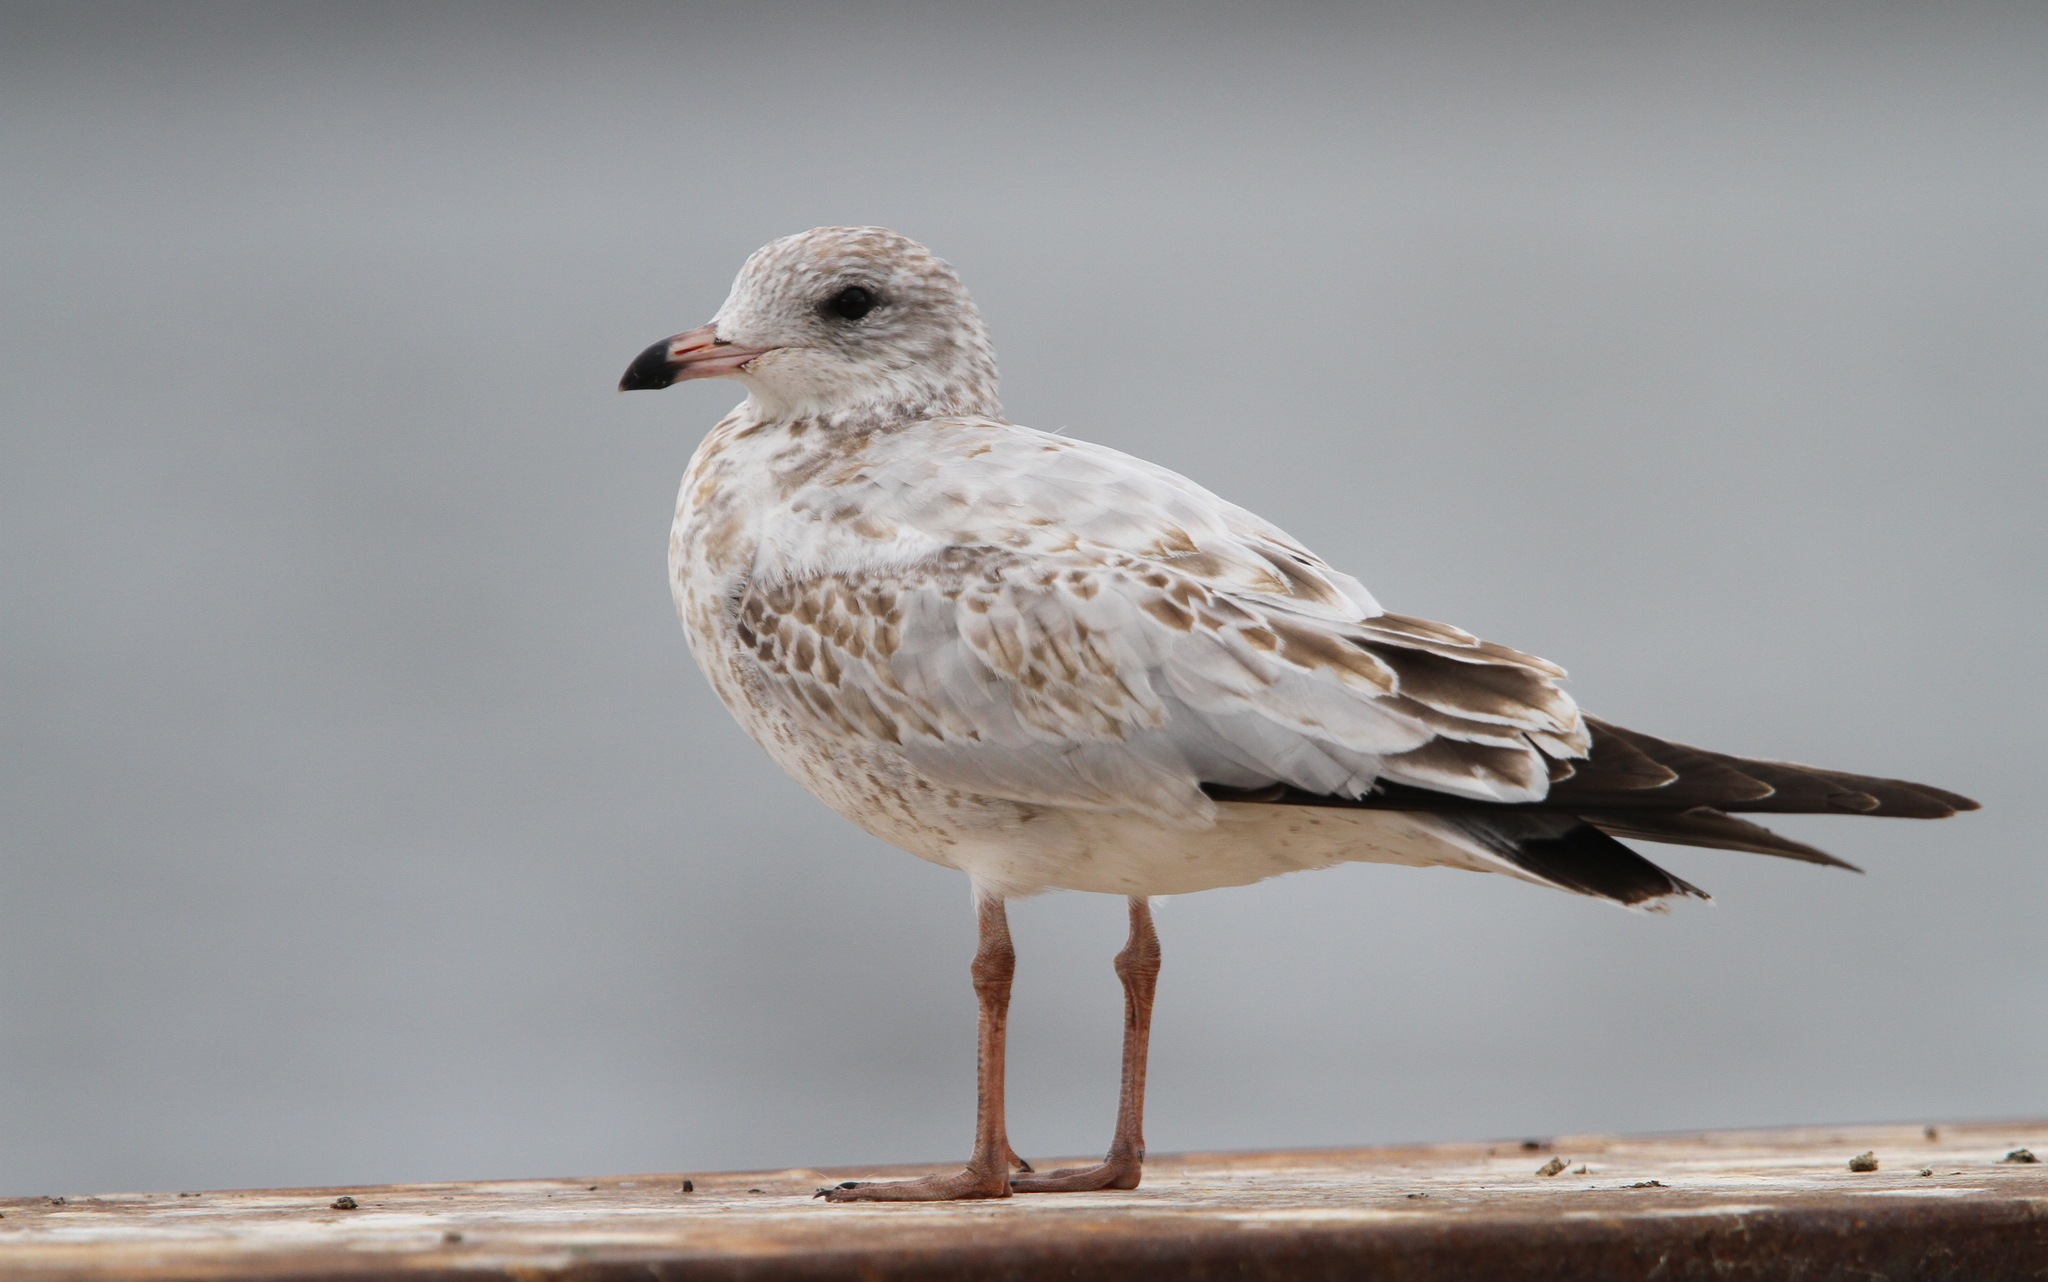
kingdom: Animalia
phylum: Chordata
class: Aves
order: Charadriiformes
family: Laridae
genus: Larus
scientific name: Larus delawarensis
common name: Ring-billed gull
